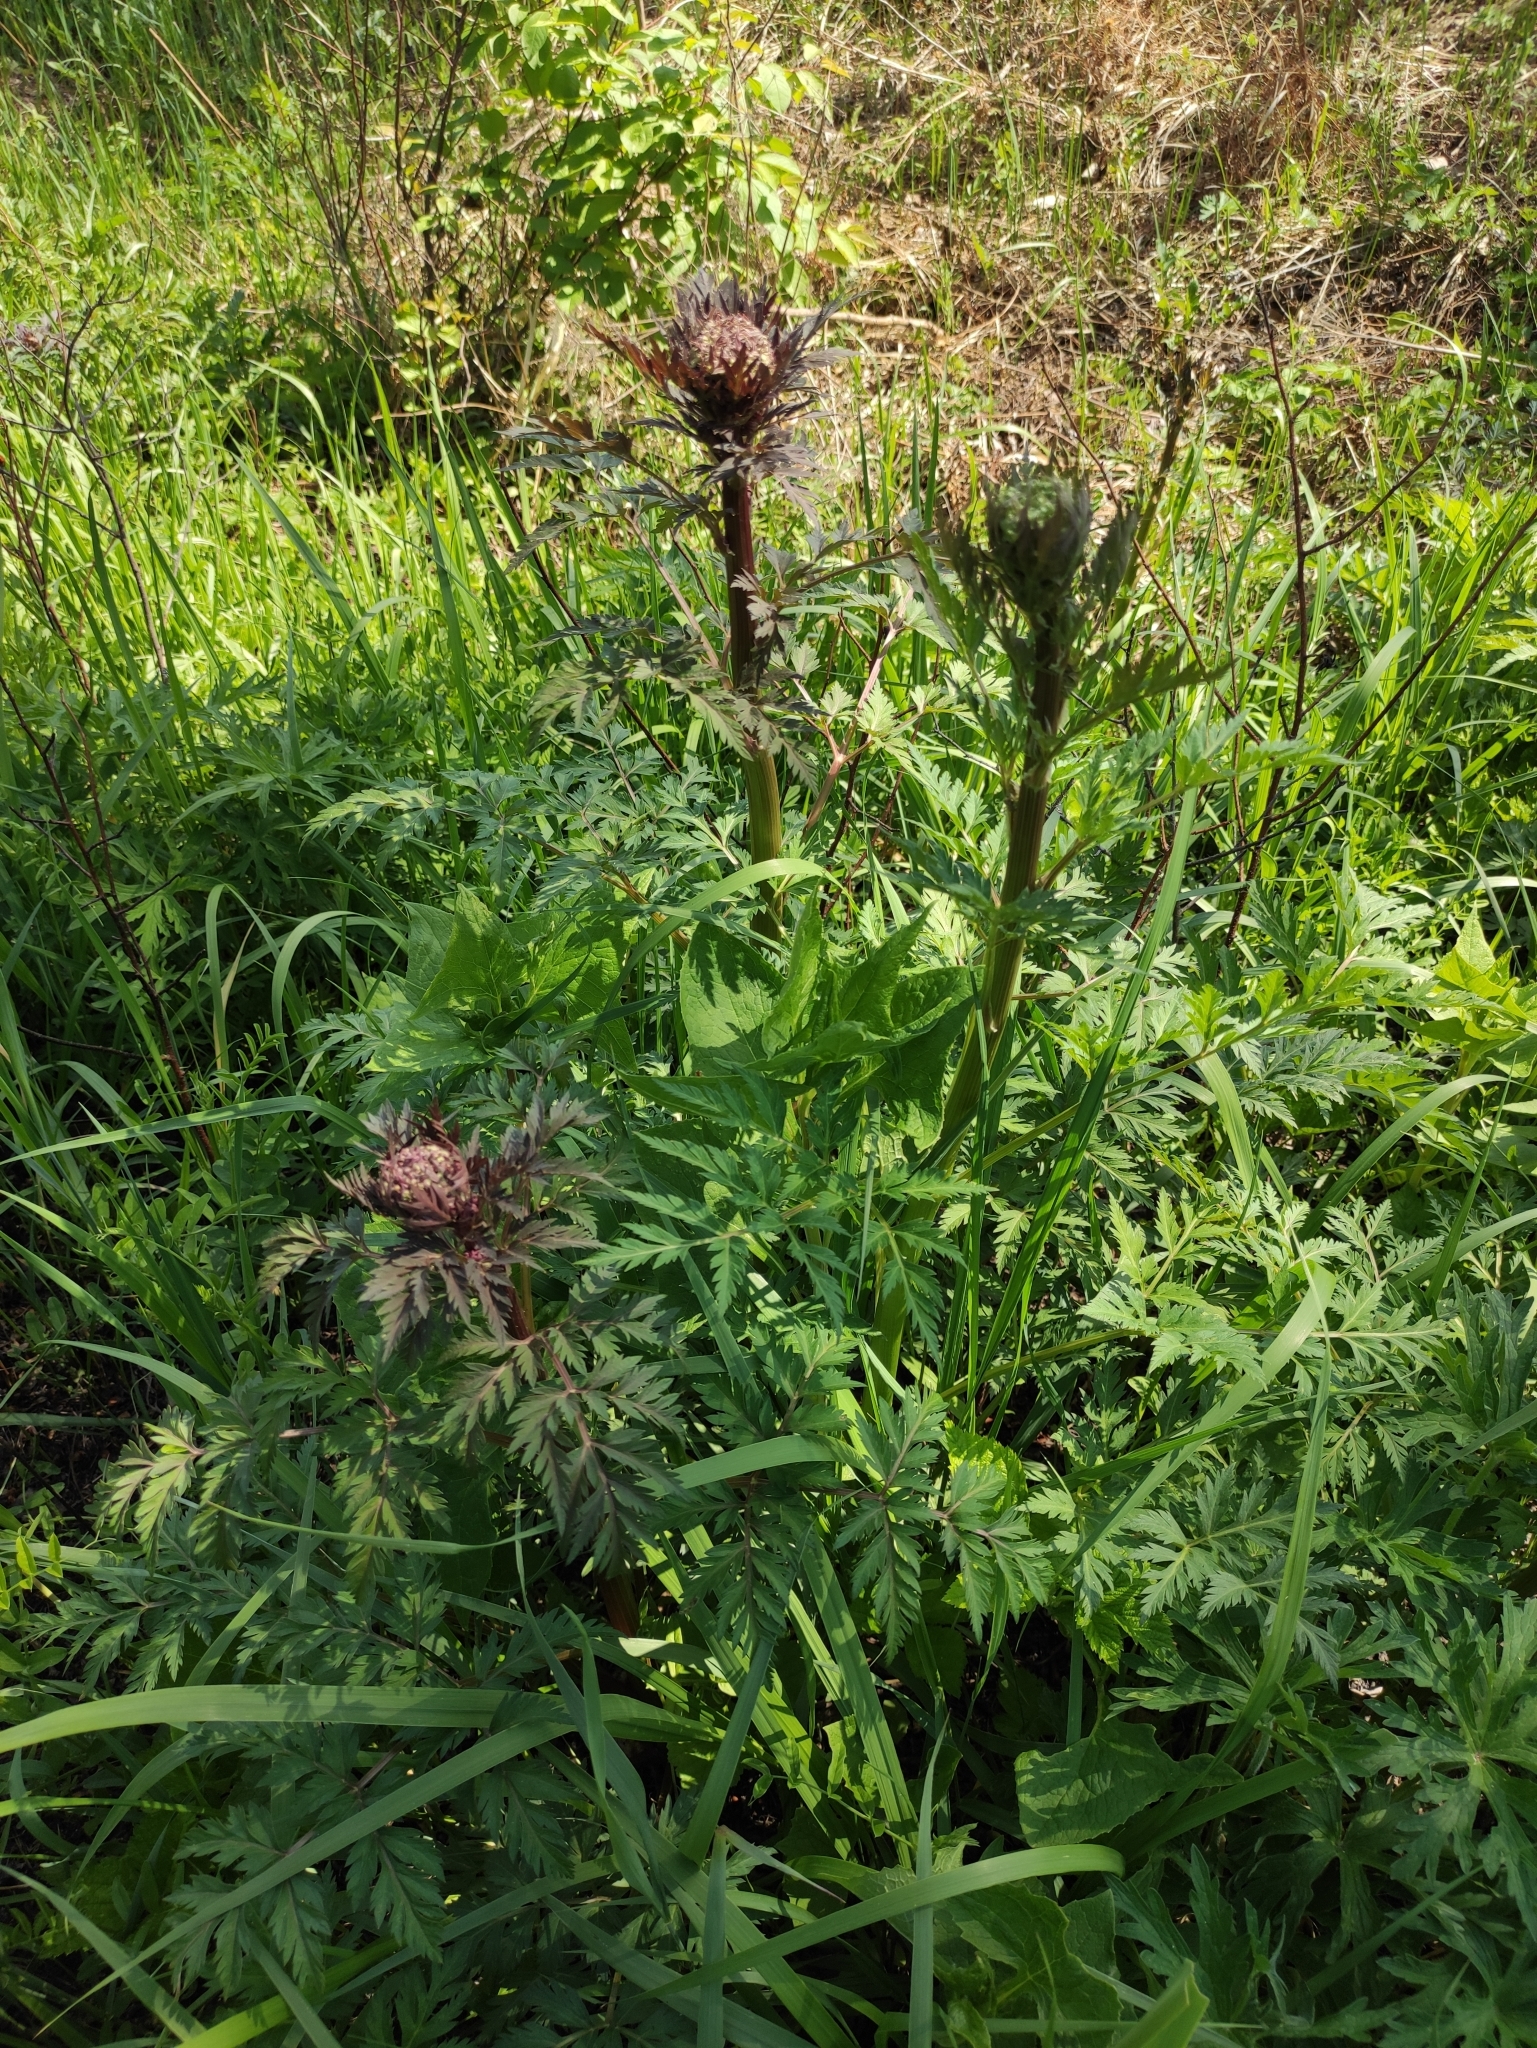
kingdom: Plantae
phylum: Tracheophyta
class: Magnoliopsida
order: Apiales
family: Apiaceae
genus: Pleurospermum
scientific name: Pleurospermum uralense
